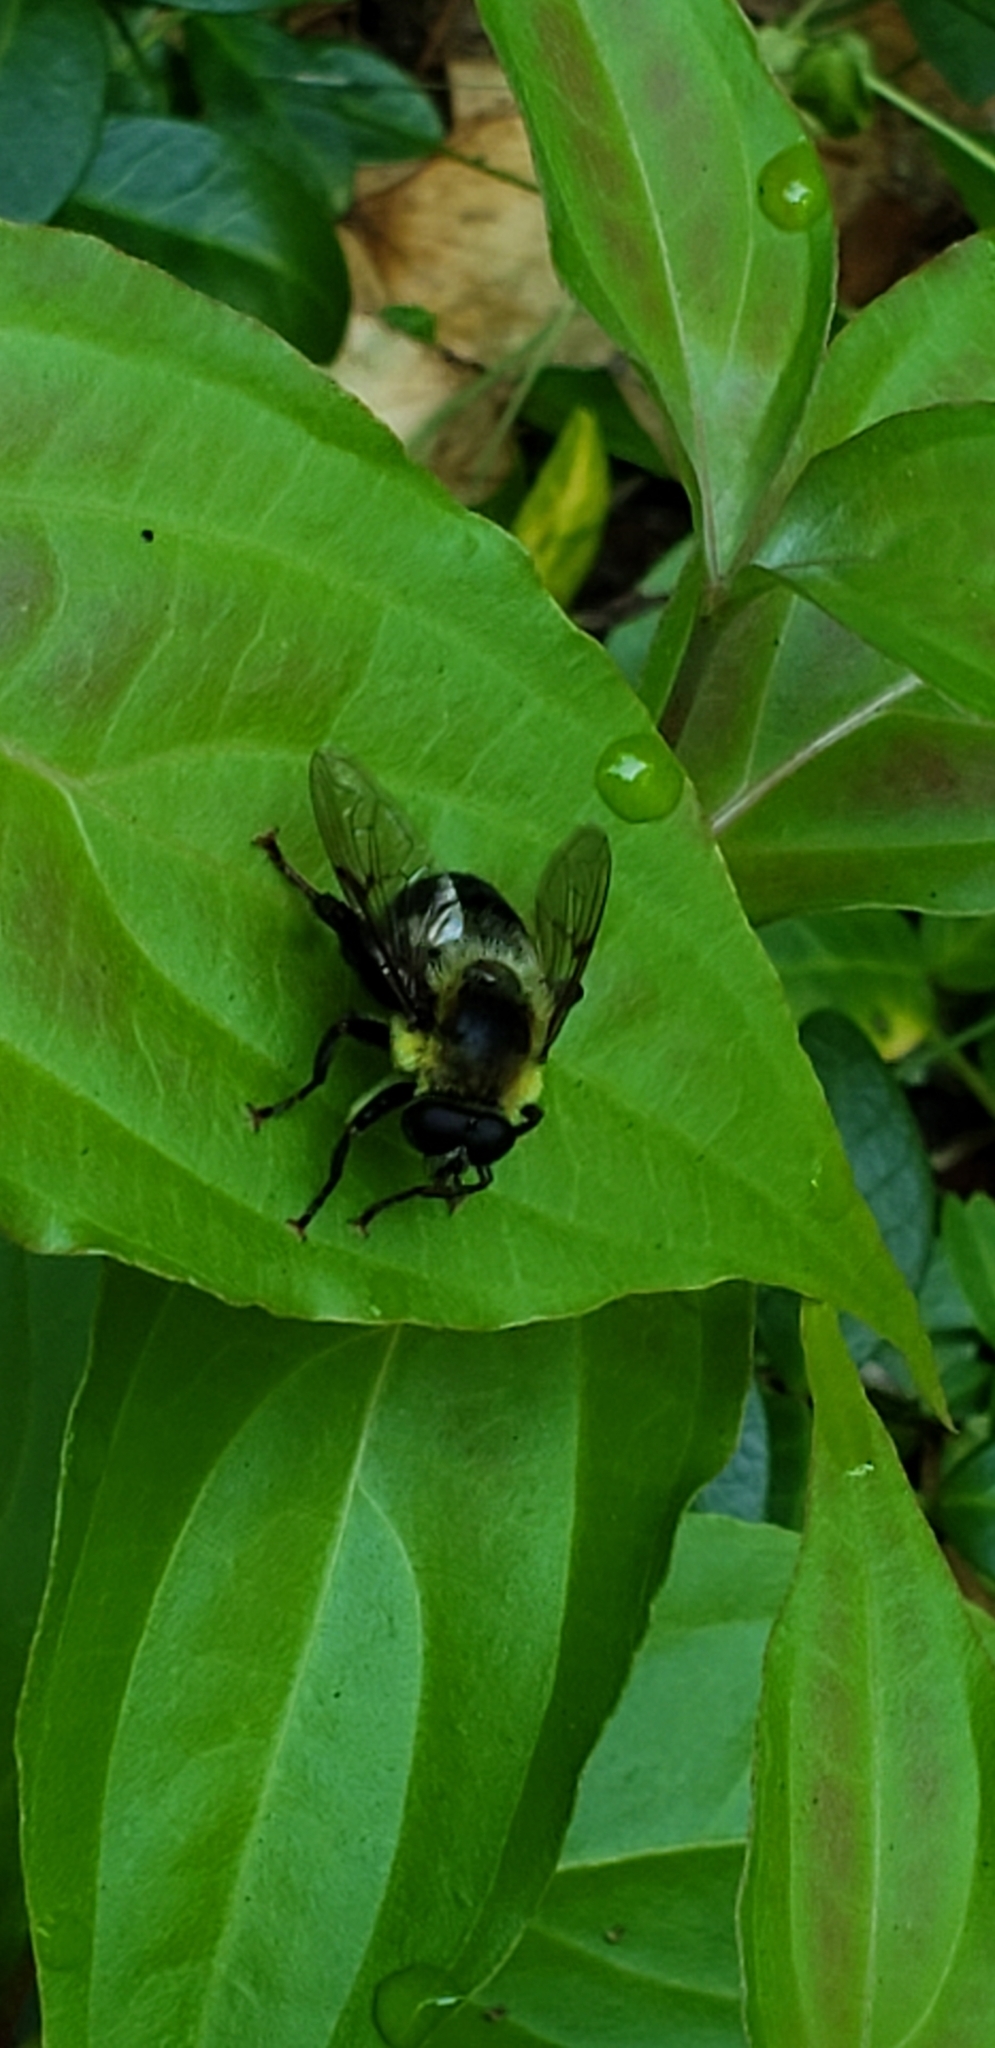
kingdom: Animalia
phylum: Arthropoda
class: Insecta
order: Diptera
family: Syrphidae
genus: Imatisma
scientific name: Imatisma posticata
